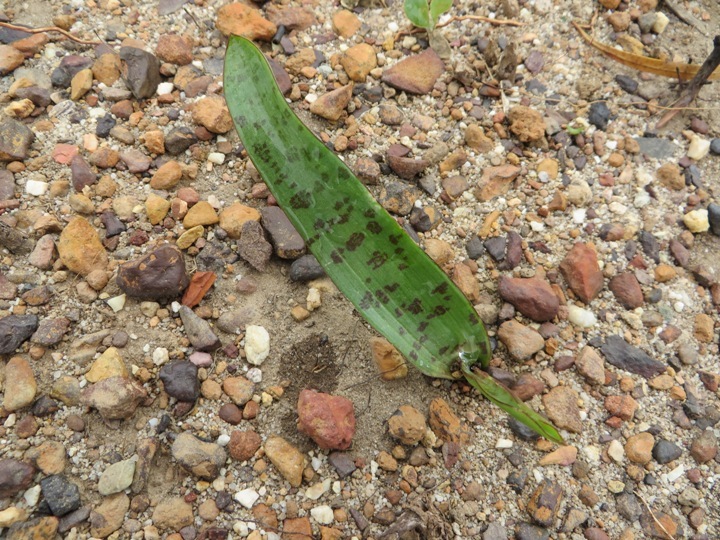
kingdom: Plantae
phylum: Tracheophyta
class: Liliopsida
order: Asparagales
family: Asparagaceae
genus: Lachenalia
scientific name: Lachenalia punctata
